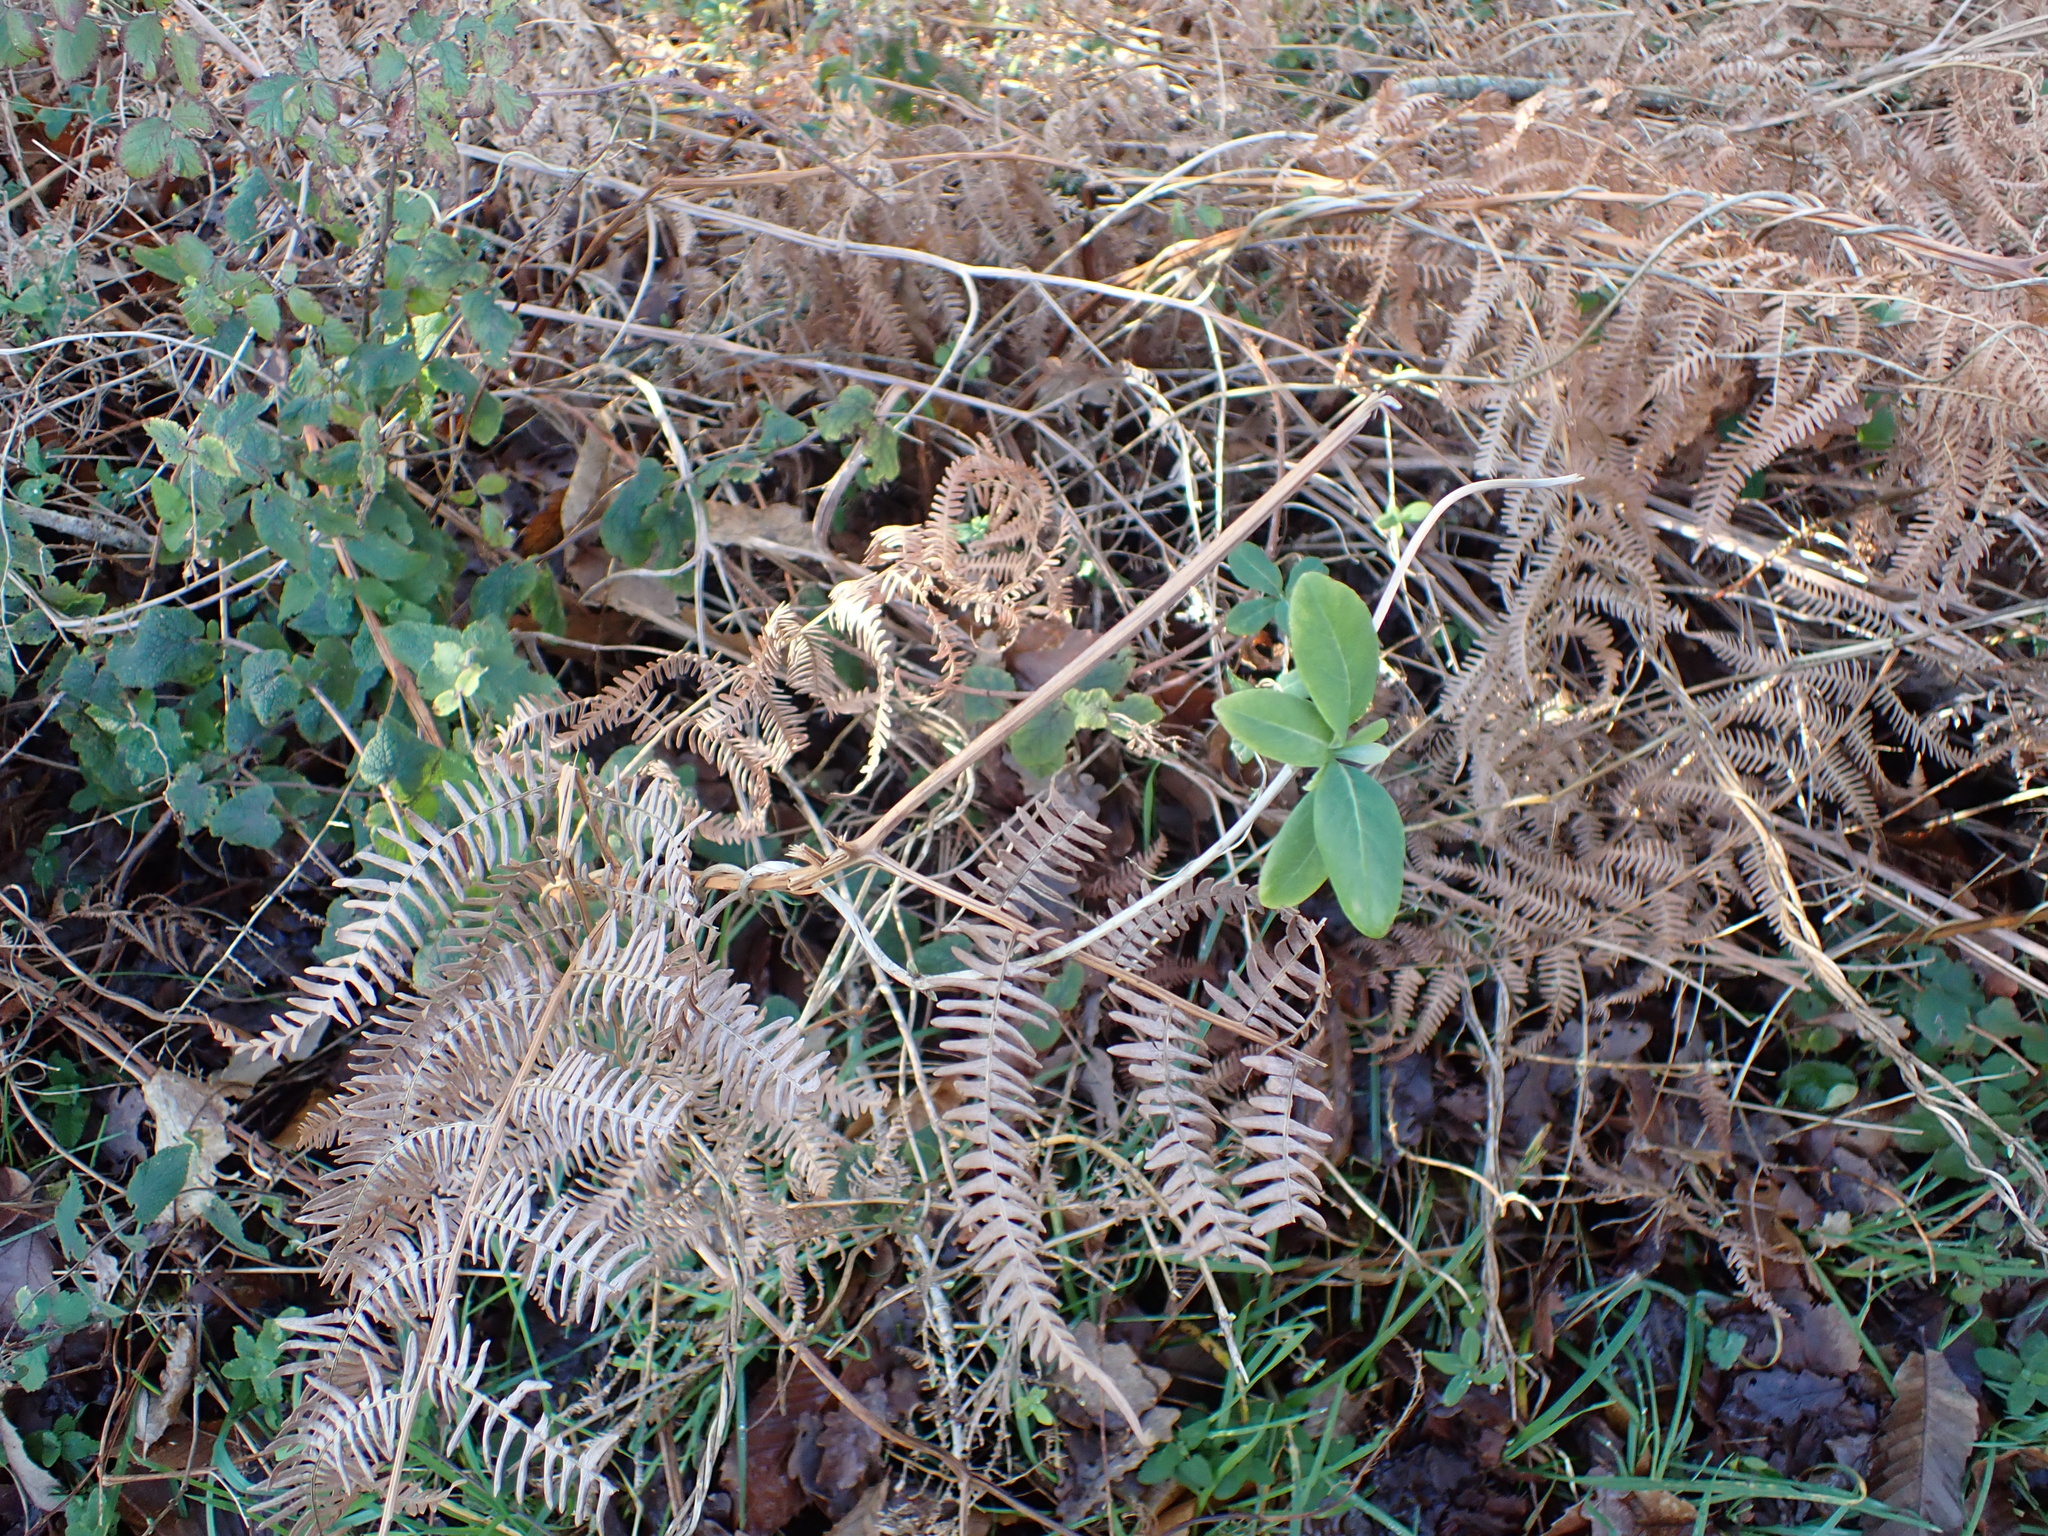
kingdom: Plantae
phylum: Tracheophyta
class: Magnoliopsida
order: Dipsacales
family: Caprifoliaceae
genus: Lonicera
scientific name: Lonicera periclymenum
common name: European honeysuckle
